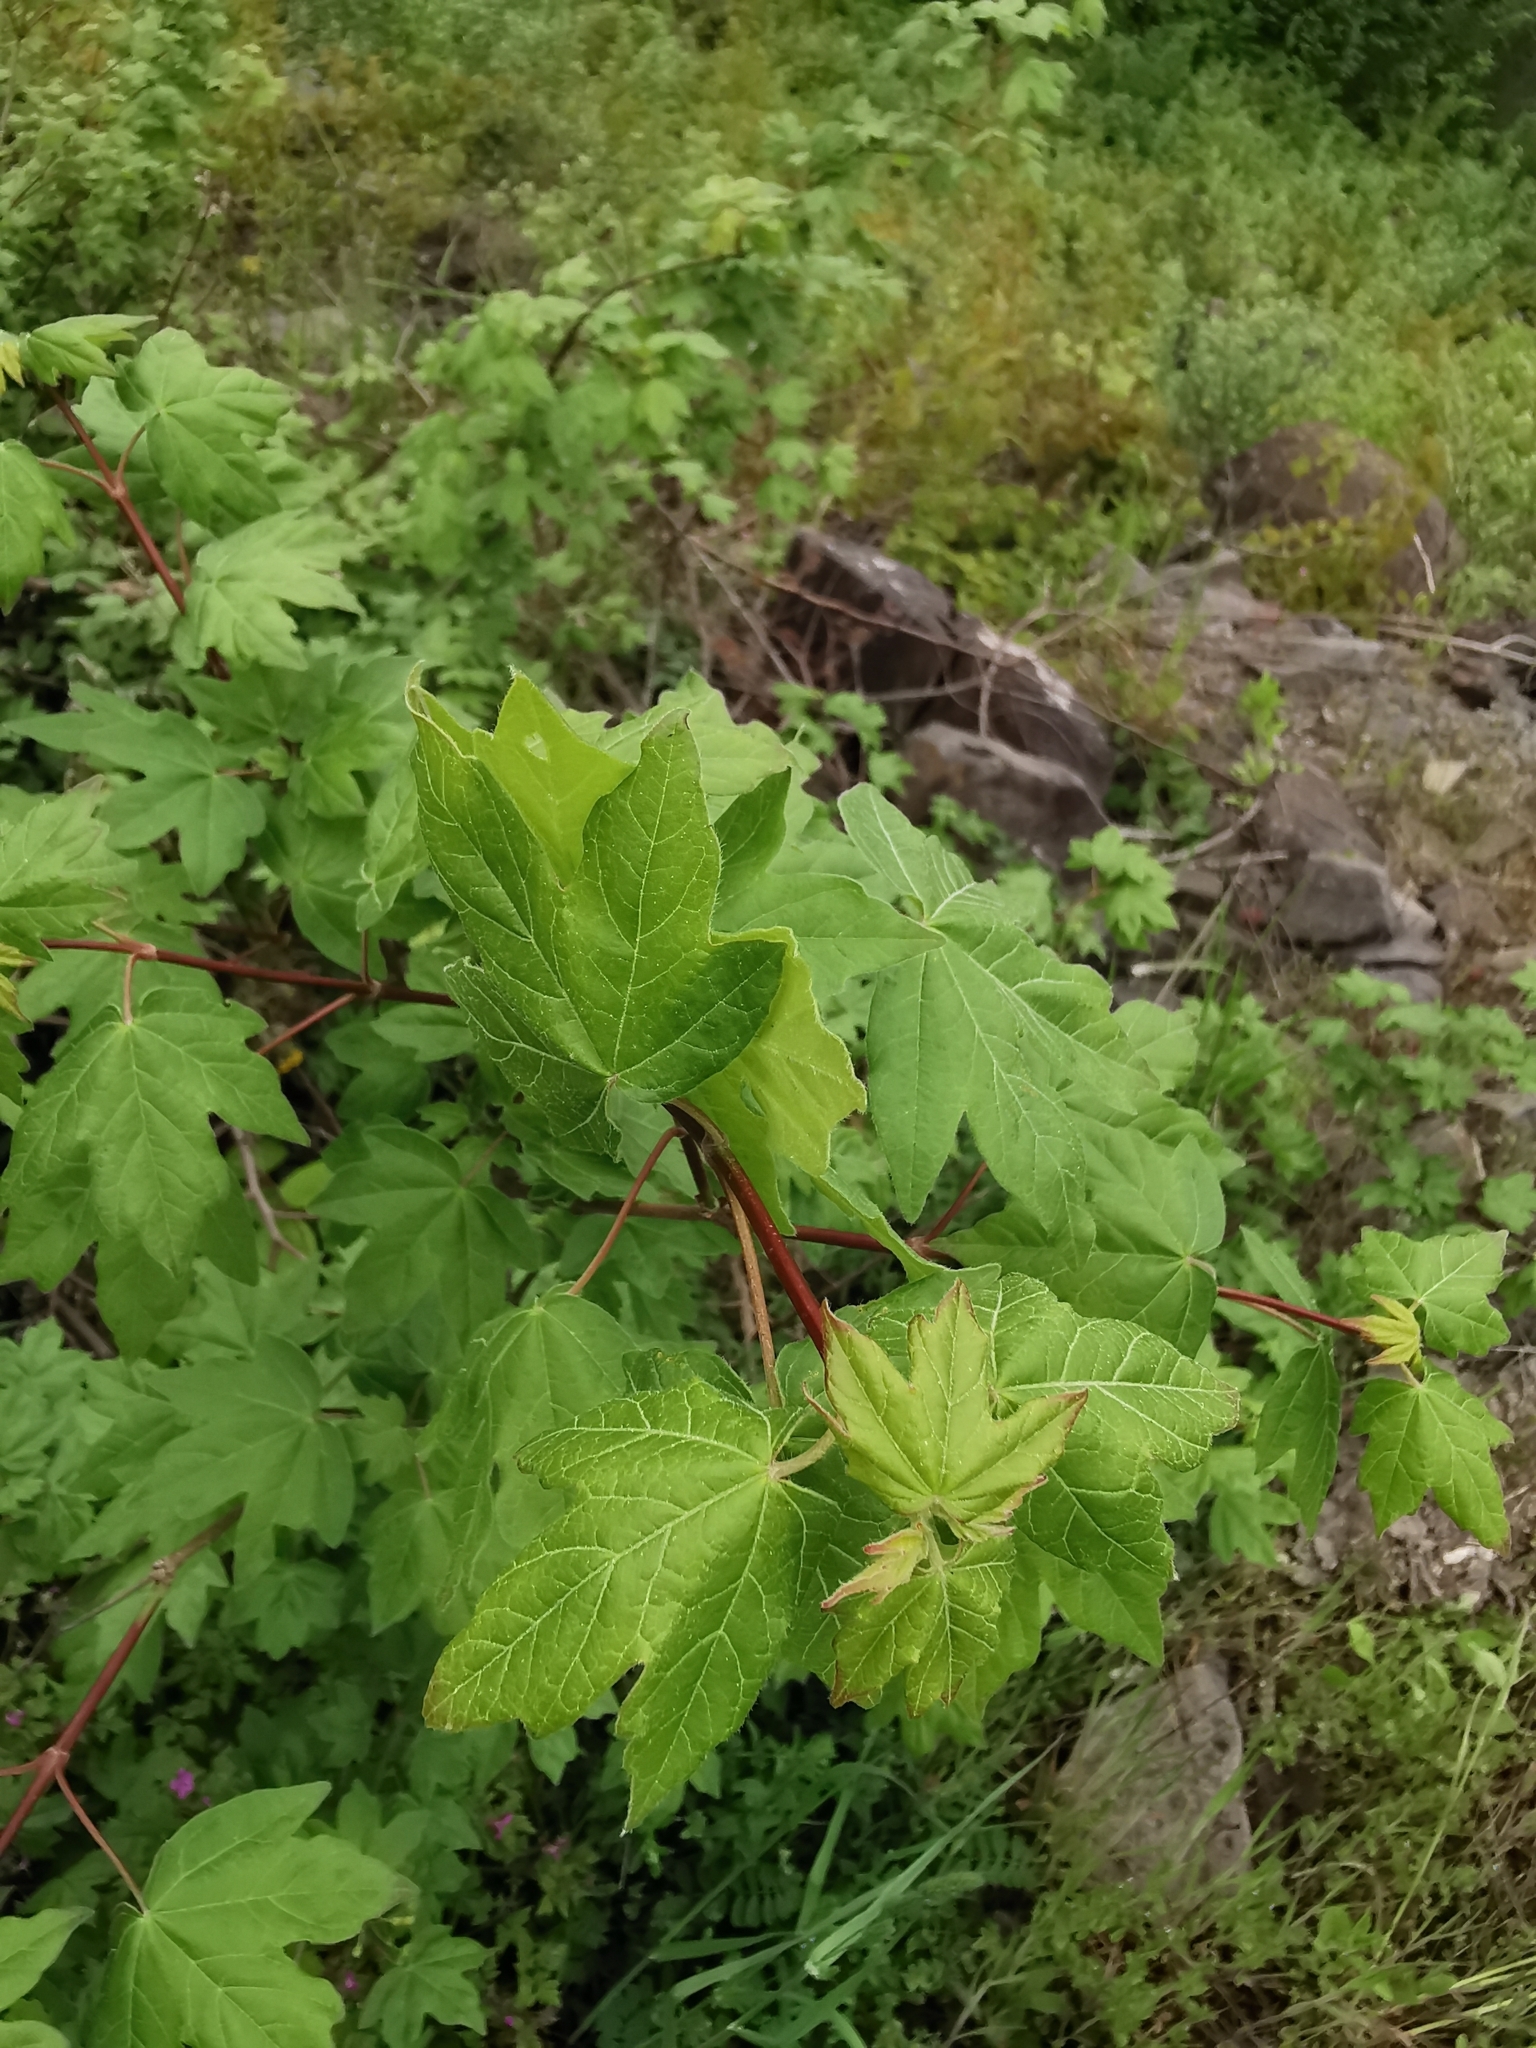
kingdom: Plantae
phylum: Tracheophyta
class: Magnoliopsida
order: Sapindales
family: Sapindaceae
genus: Acer
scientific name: Acer campestre
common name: Field maple
